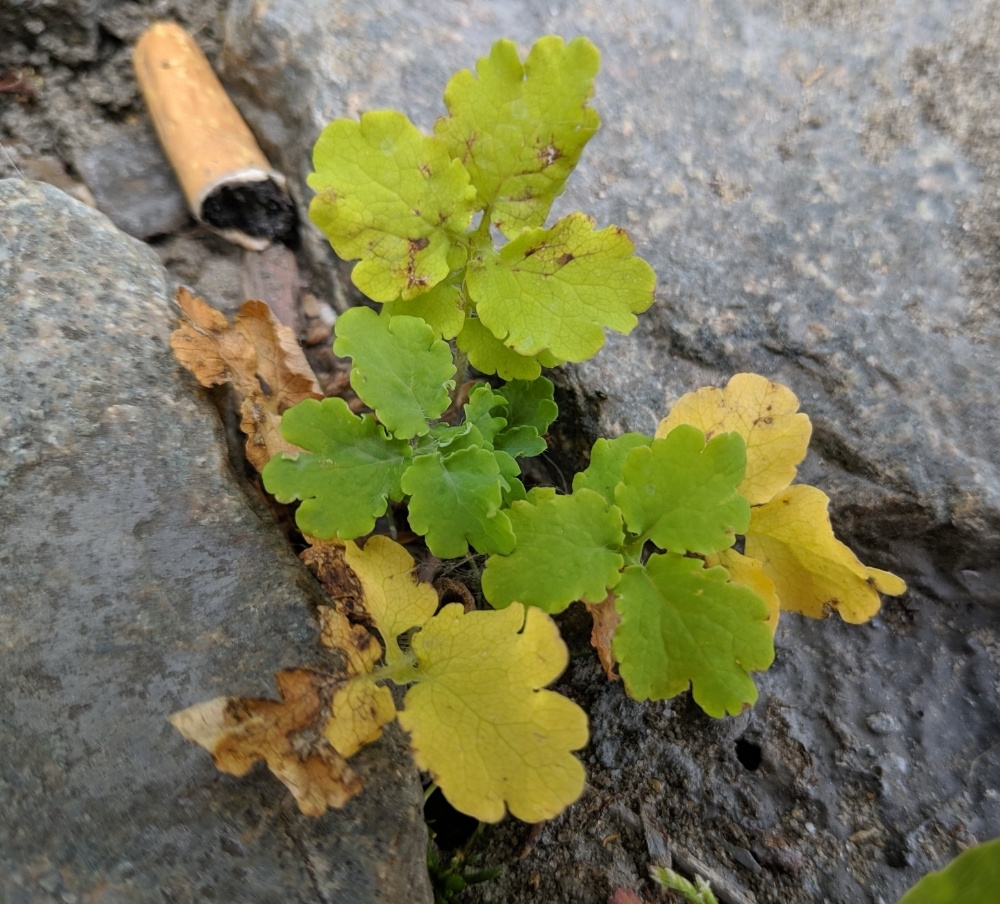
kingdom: Plantae
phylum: Tracheophyta
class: Magnoliopsida
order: Ranunculales
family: Papaveraceae
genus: Chelidonium
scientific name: Chelidonium majus
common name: Greater celandine
